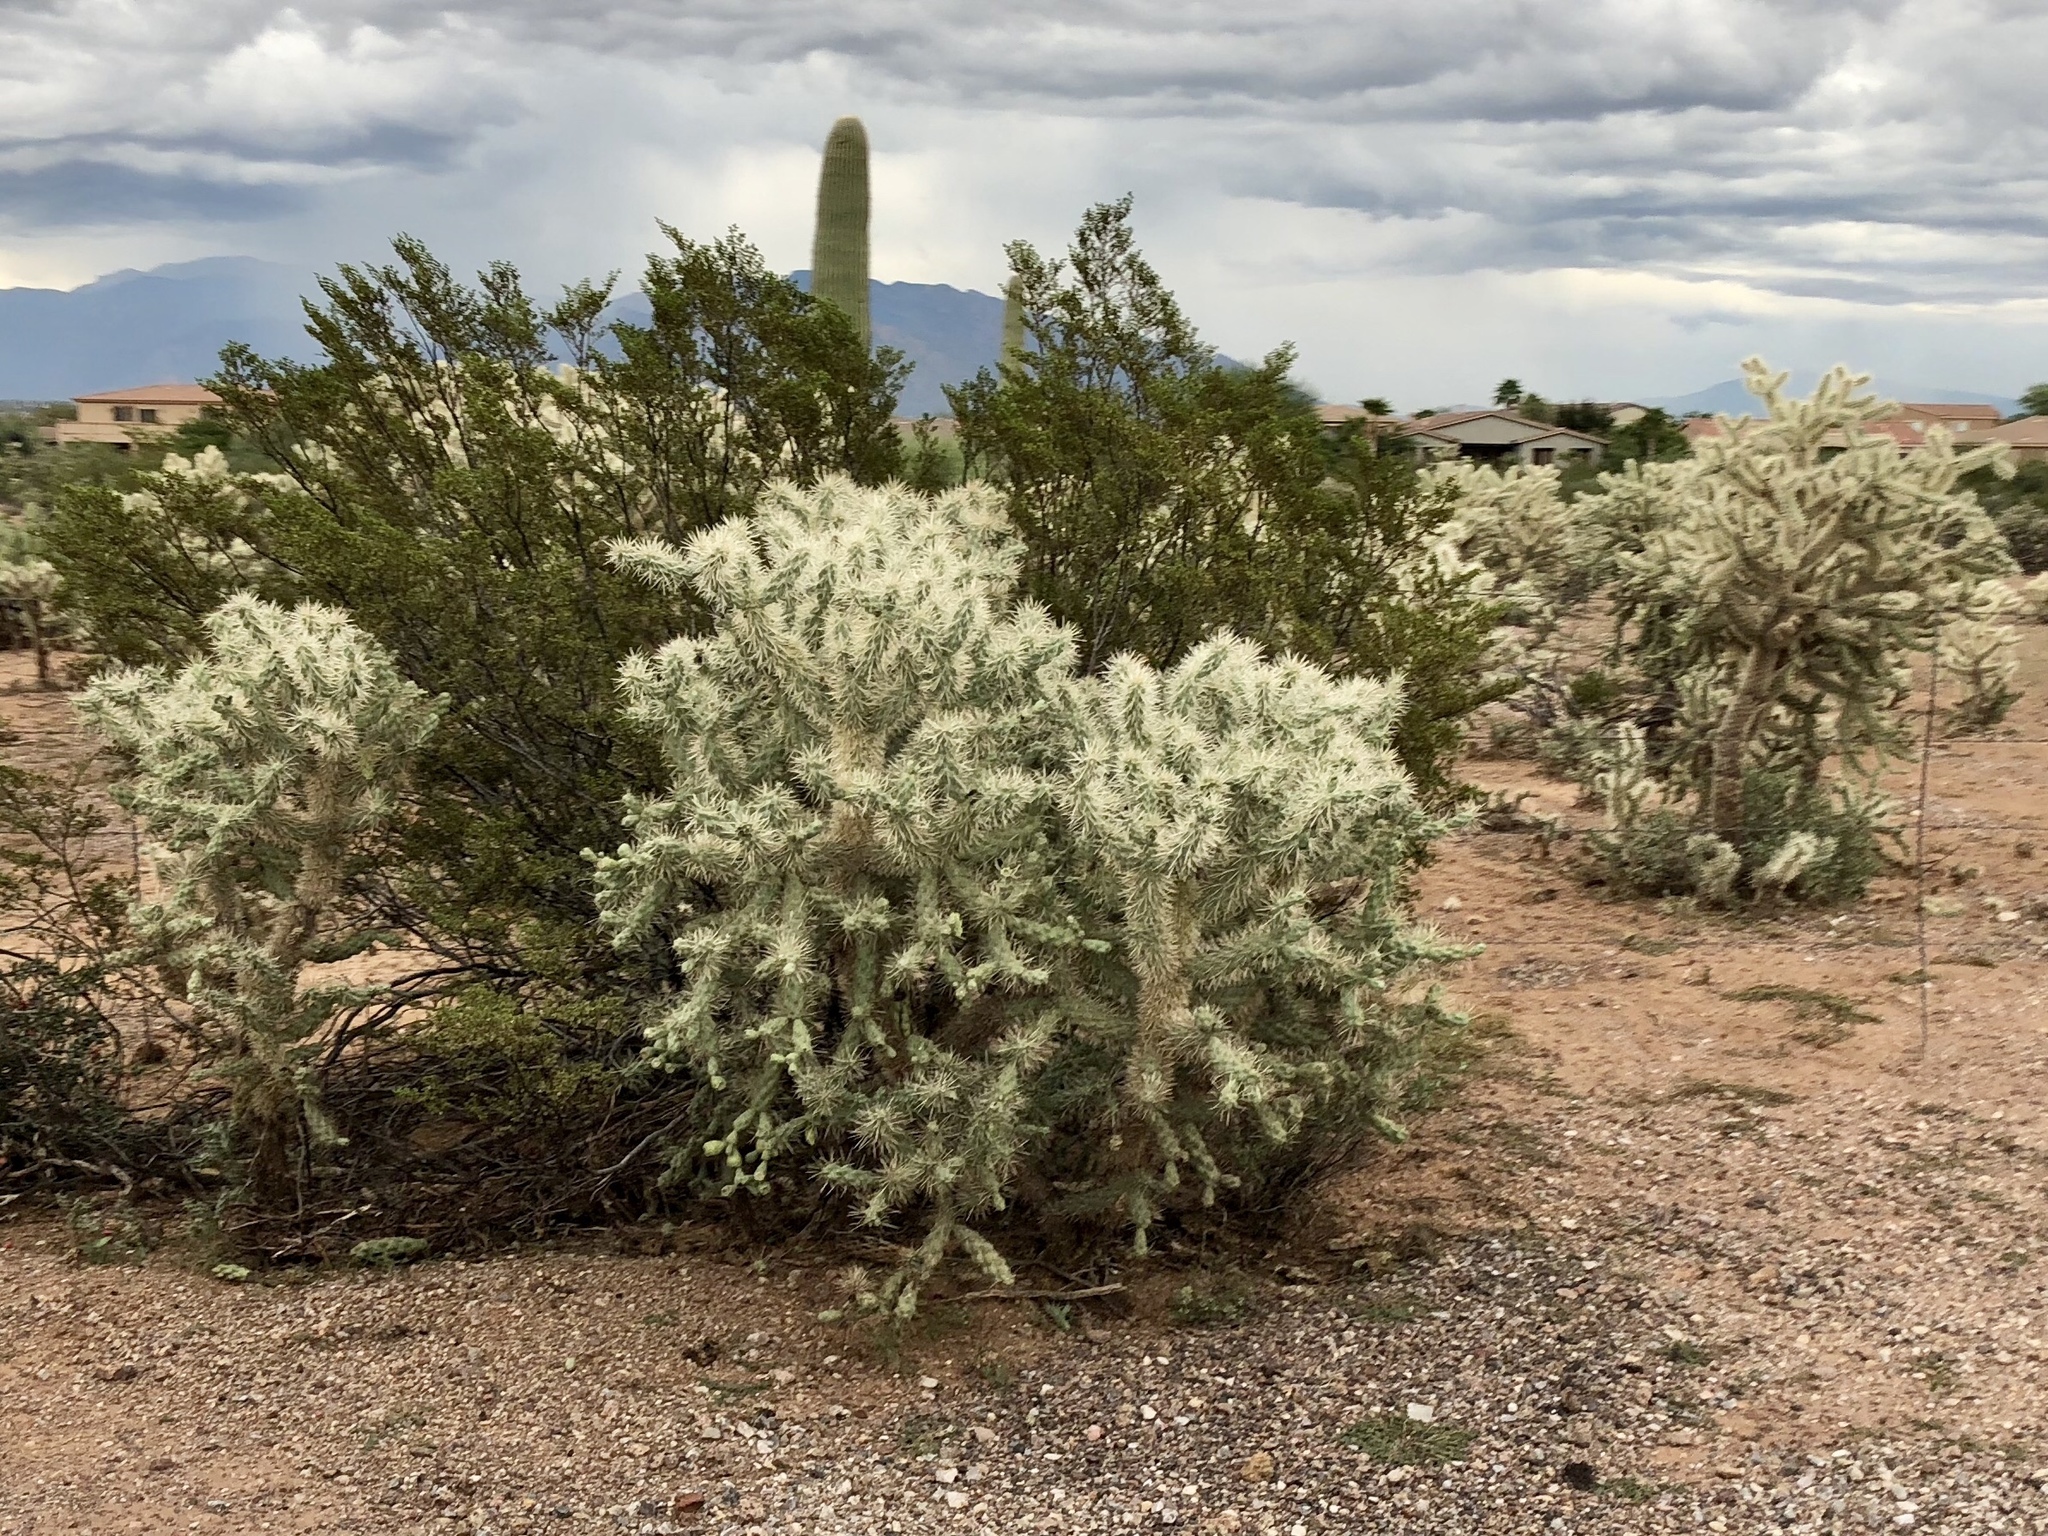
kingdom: Plantae
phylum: Tracheophyta
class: Magnoliopsida
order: Caryophyllales
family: Cactaceae
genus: Cylindropuntia
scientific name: Cylindropuntia fulgida
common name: Jumping cholla
